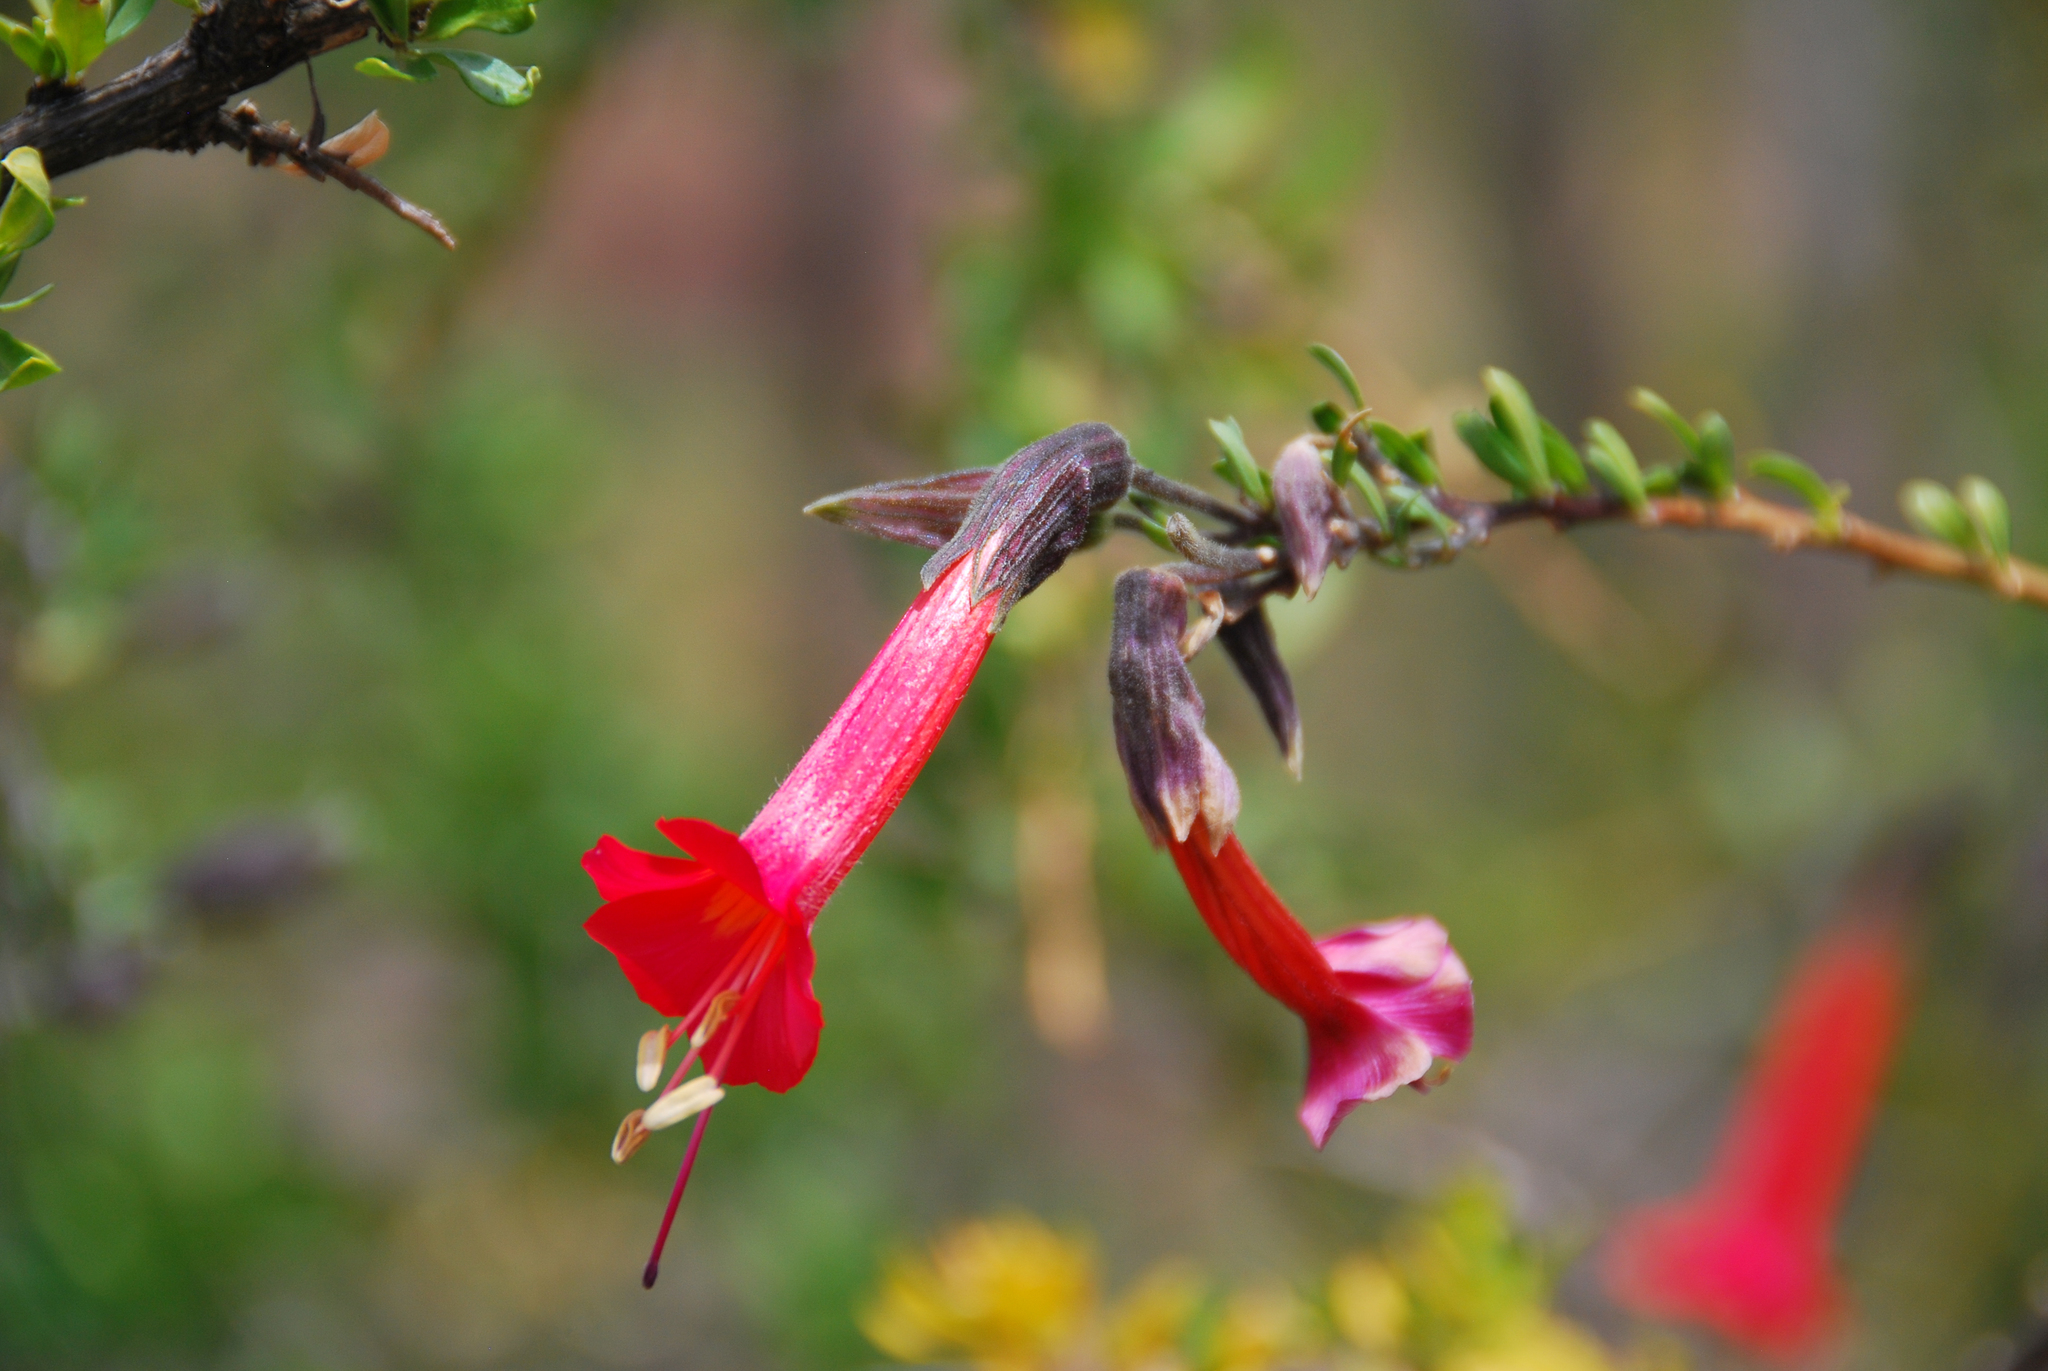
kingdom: Plantae
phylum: Tracheophyta
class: Magnoliopsida
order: Ericales
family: Polemoniaceae
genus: Cantua
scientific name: Cantua buxifolia
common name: Sacred-flower-of-the-incas
